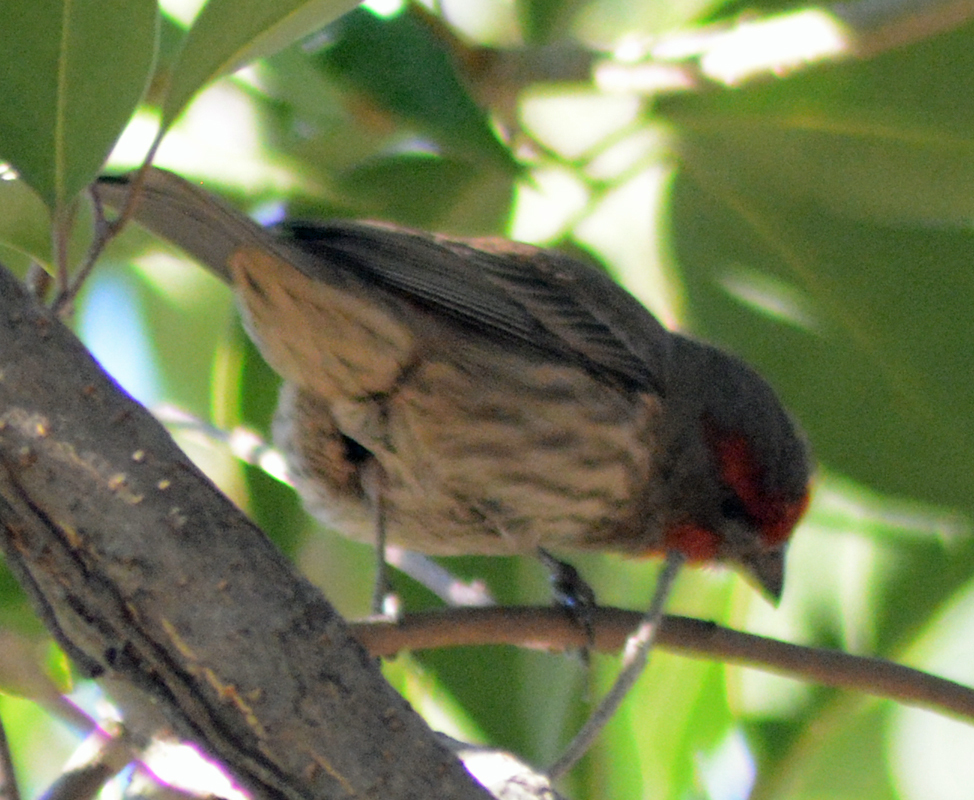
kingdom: Animalia
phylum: Chordata
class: Aves
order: Passeriformes
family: Fringillidae
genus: Haemorhous
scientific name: Haemorhous mexicanus
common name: House finch
